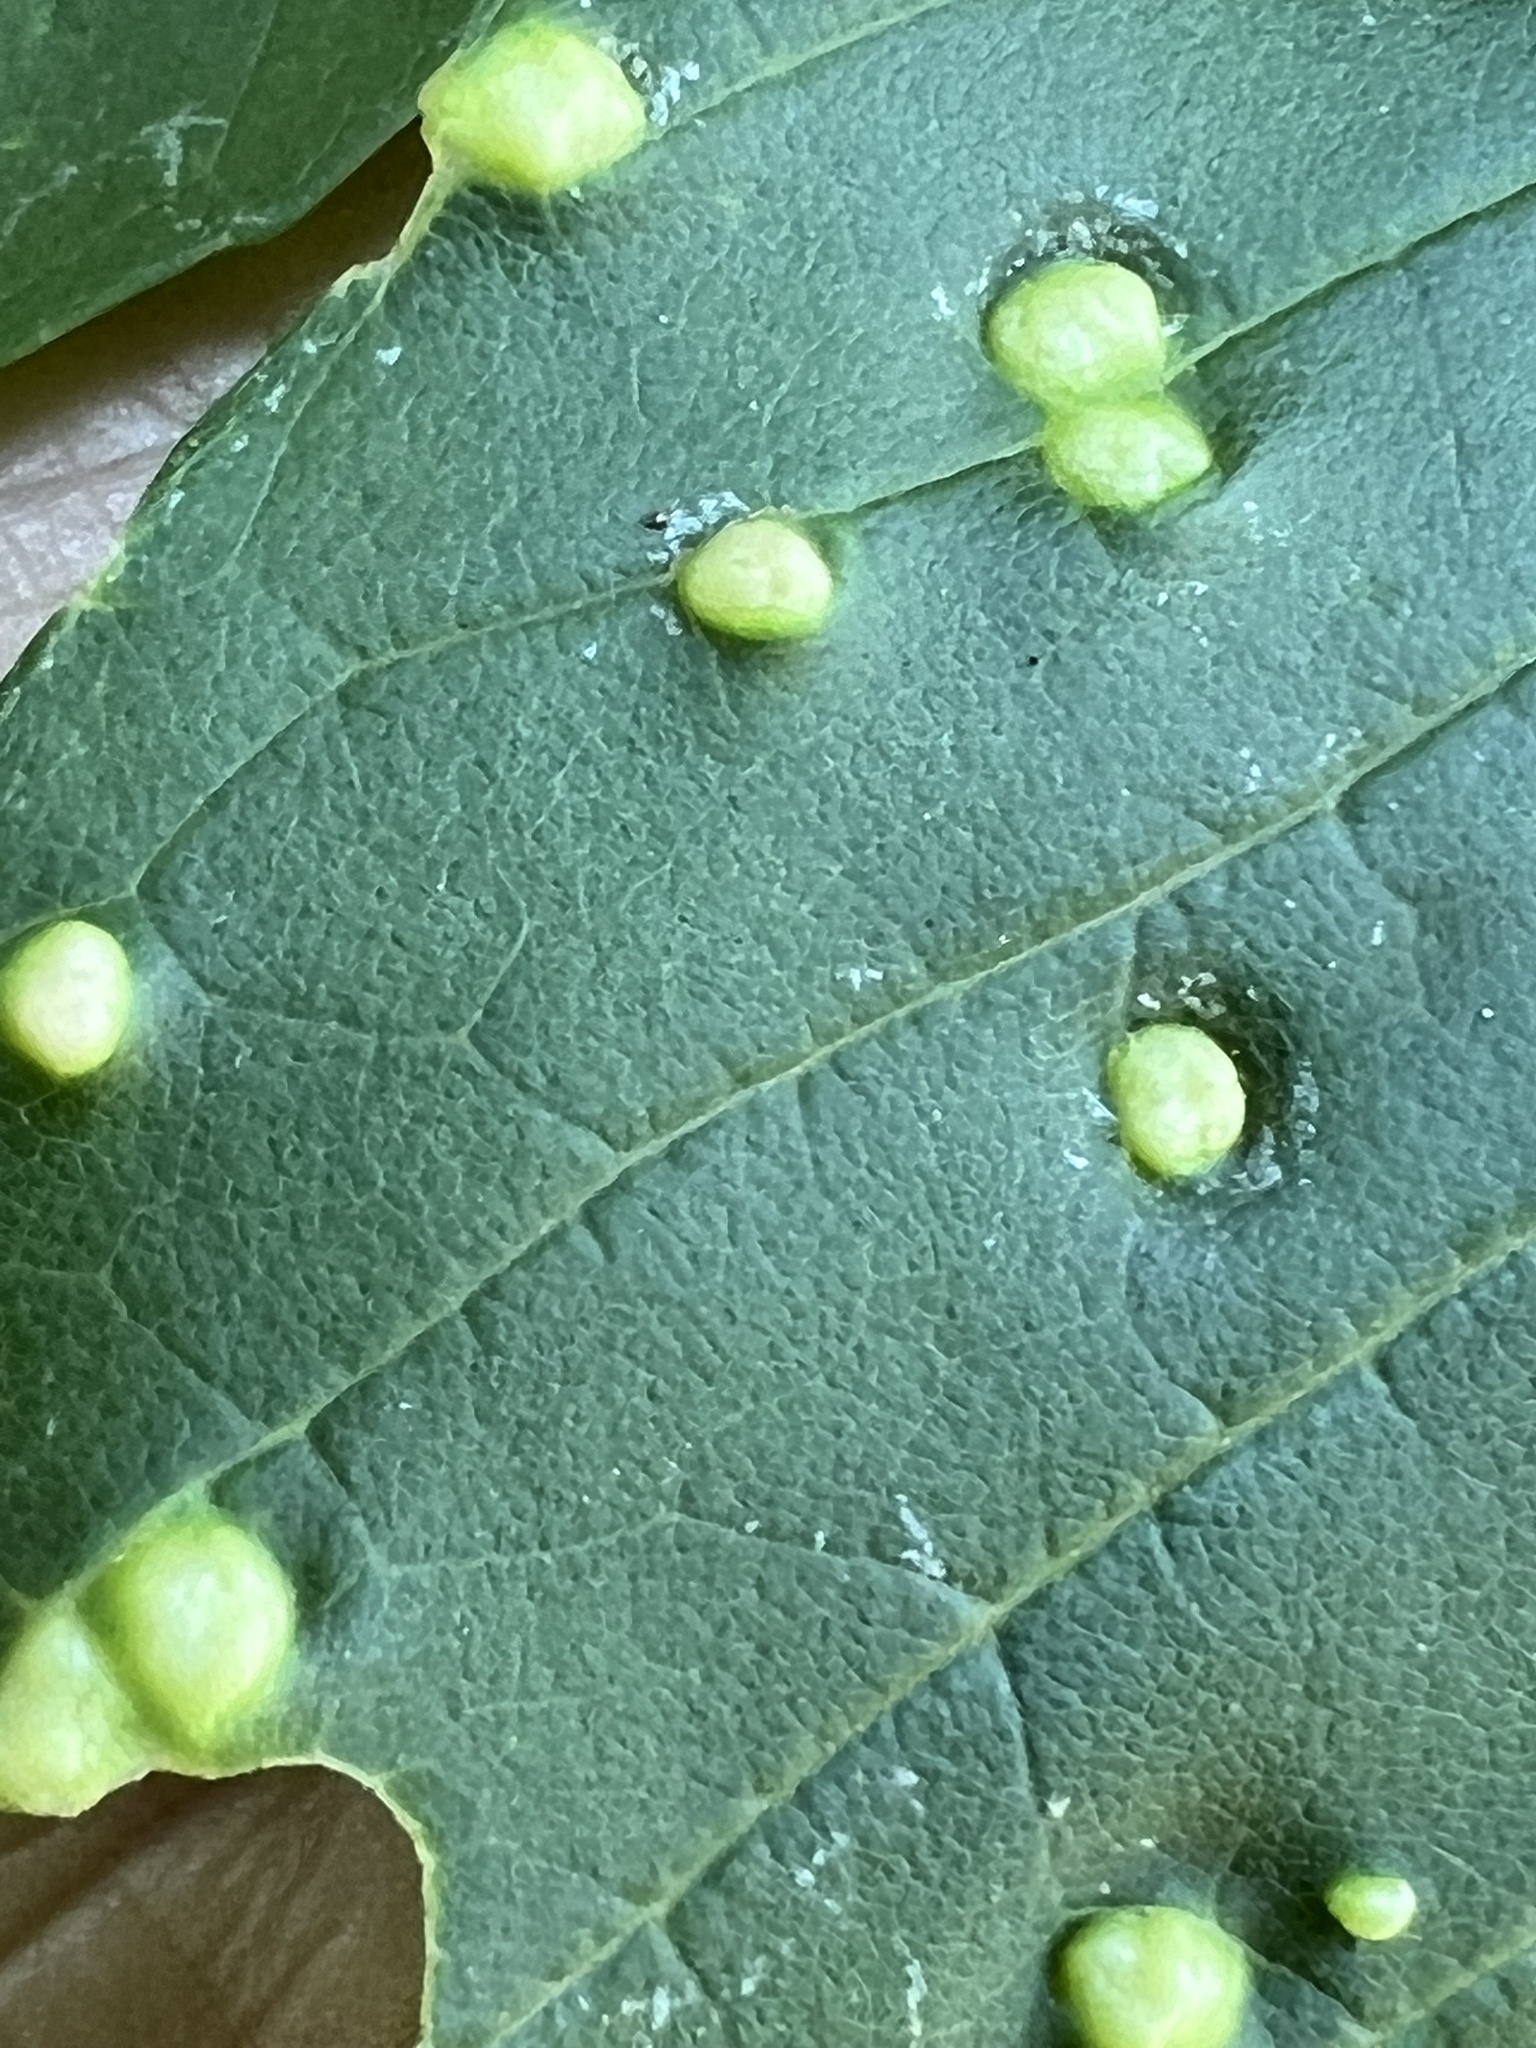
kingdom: Animalia
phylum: Arthropoda
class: Arachnida
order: Trombidiformes
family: Eriophyidae
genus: Aceria
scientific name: Aceria fraxinicola
